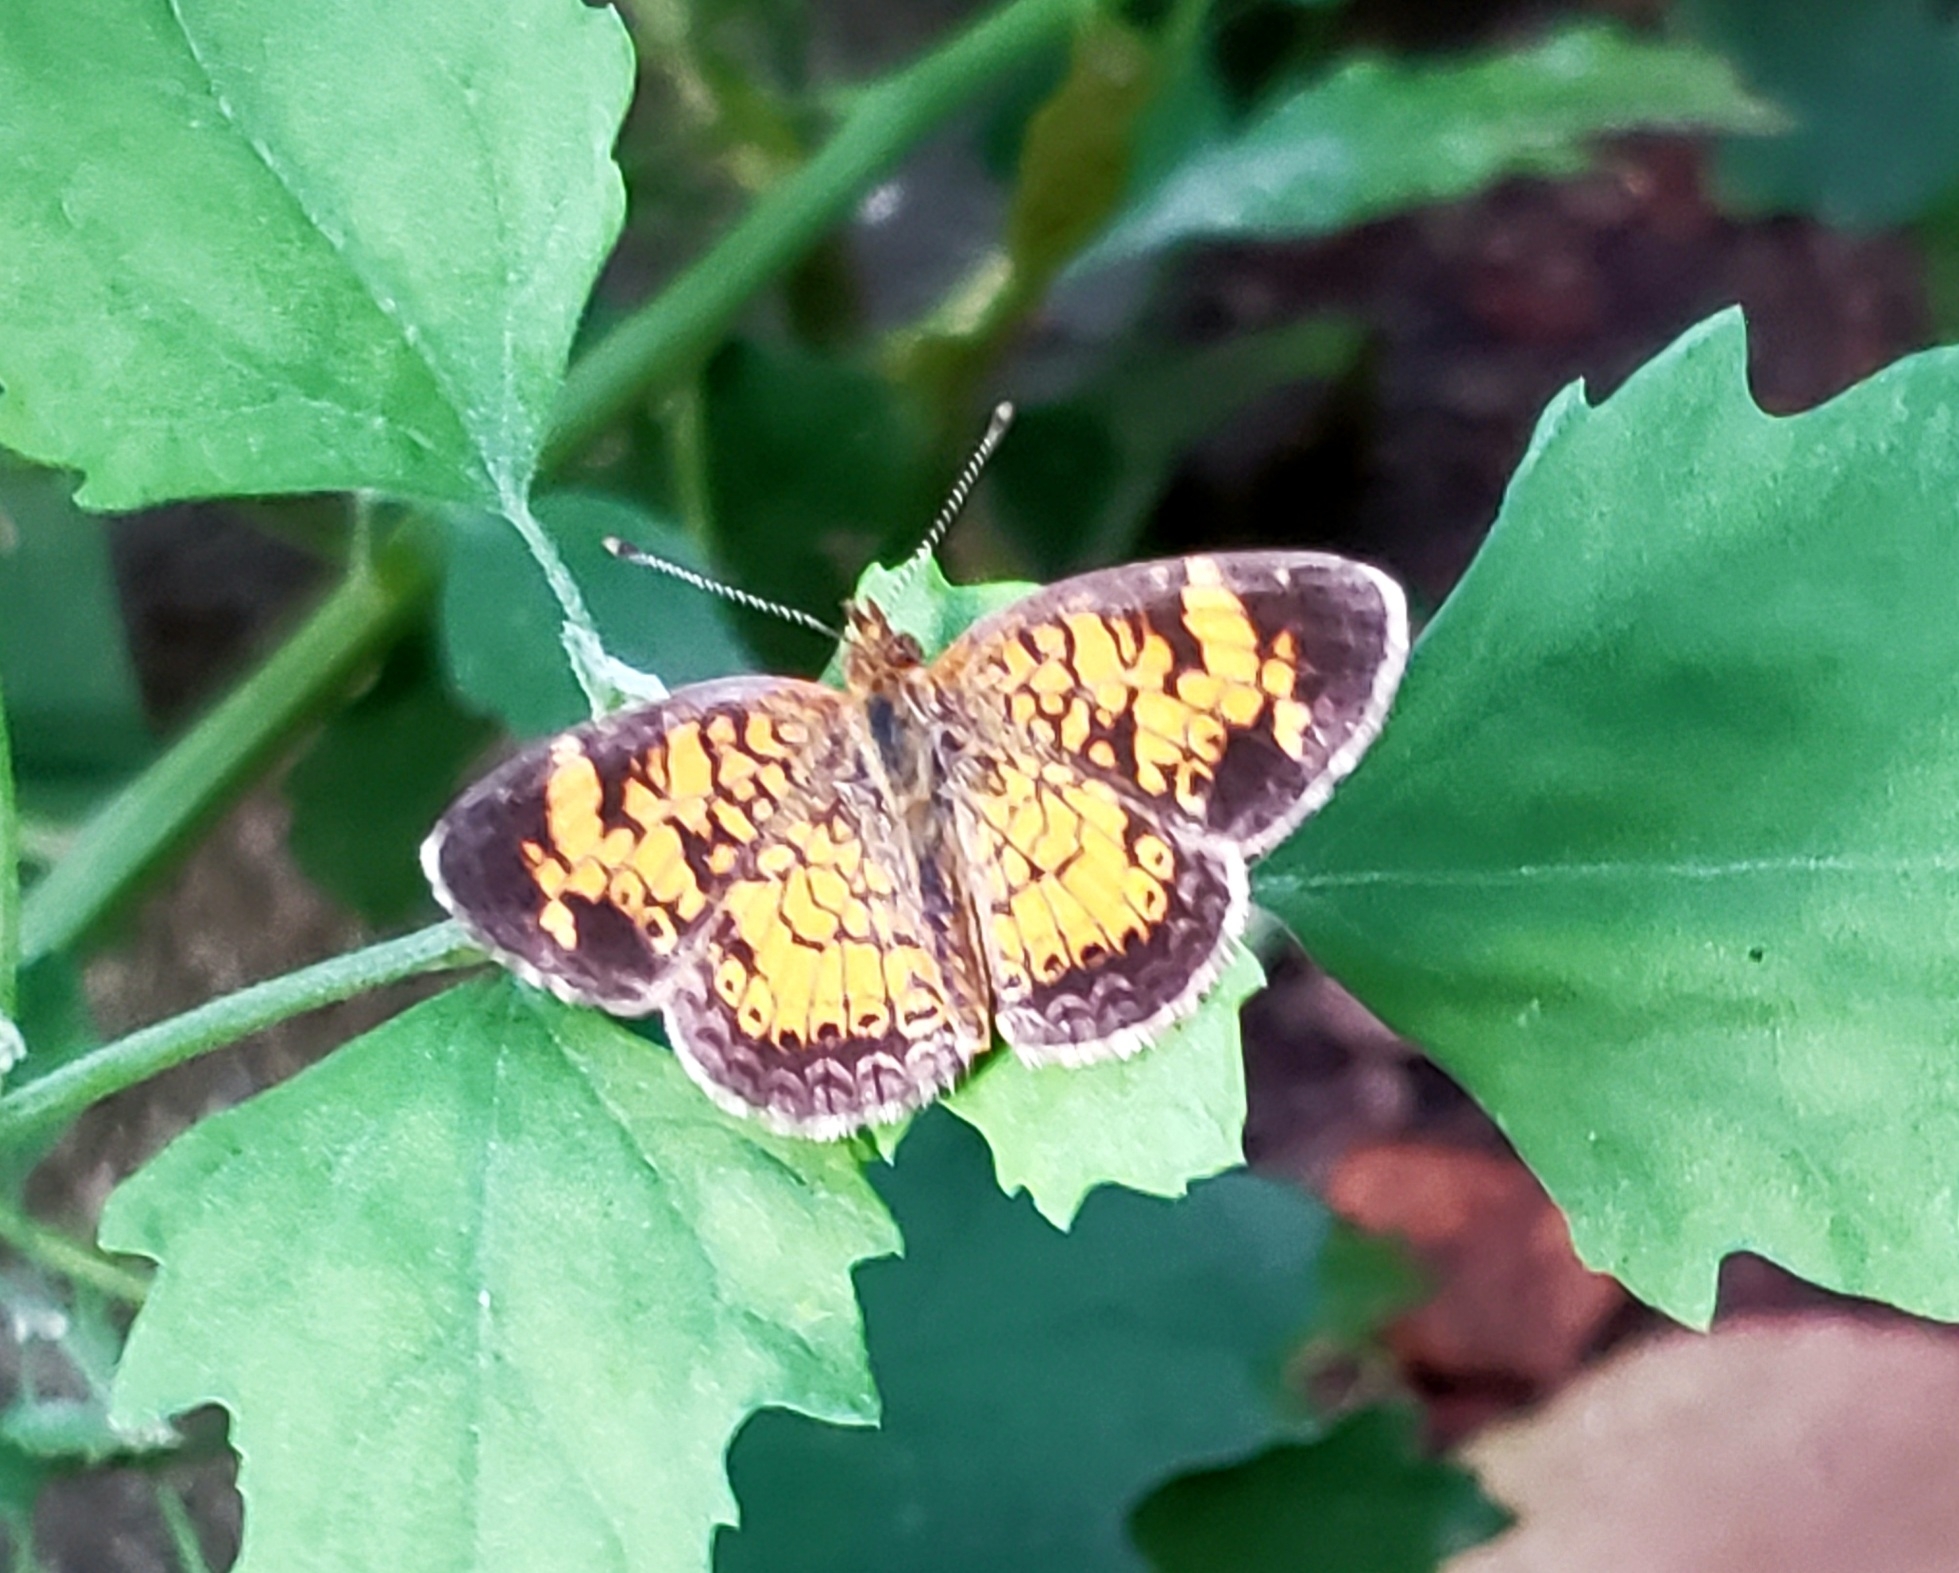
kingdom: Animalia
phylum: Arthropoda
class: Insecta
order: Lepidoptera
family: Nymphalidae
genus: Phyciodes
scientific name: Phyciodes tharos
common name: Pearl crescent
